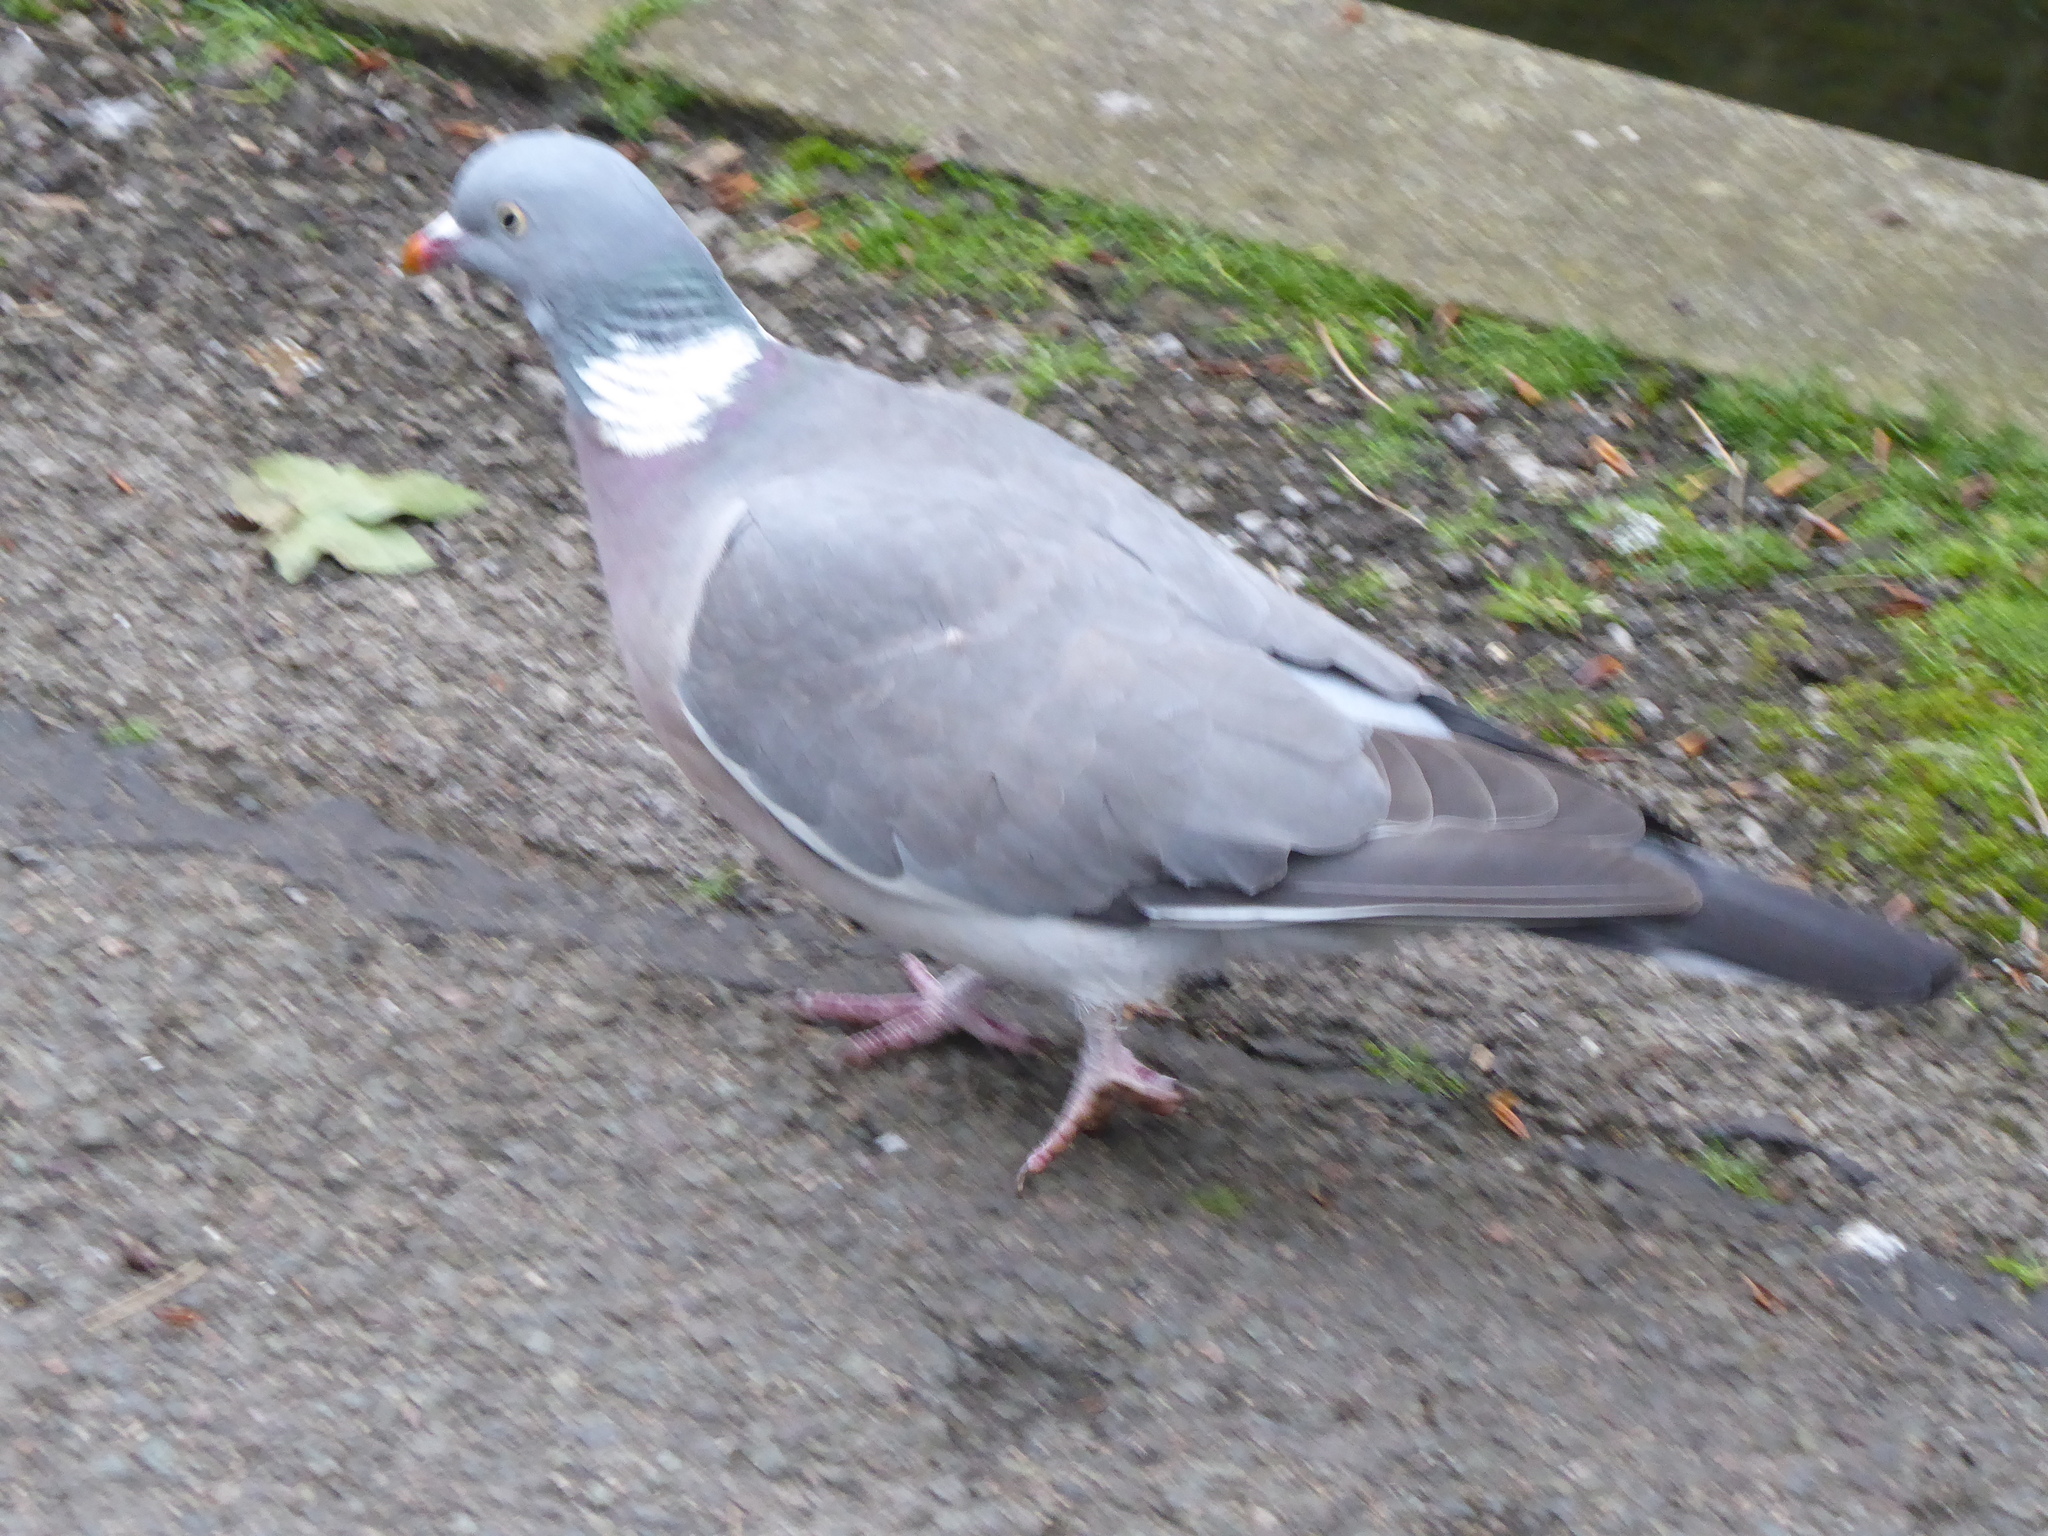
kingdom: Animalia
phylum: Chordata
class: Aves
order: Columbiformes
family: Columbidae
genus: Columba
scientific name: Columba palumbus
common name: Common wood pigeon
